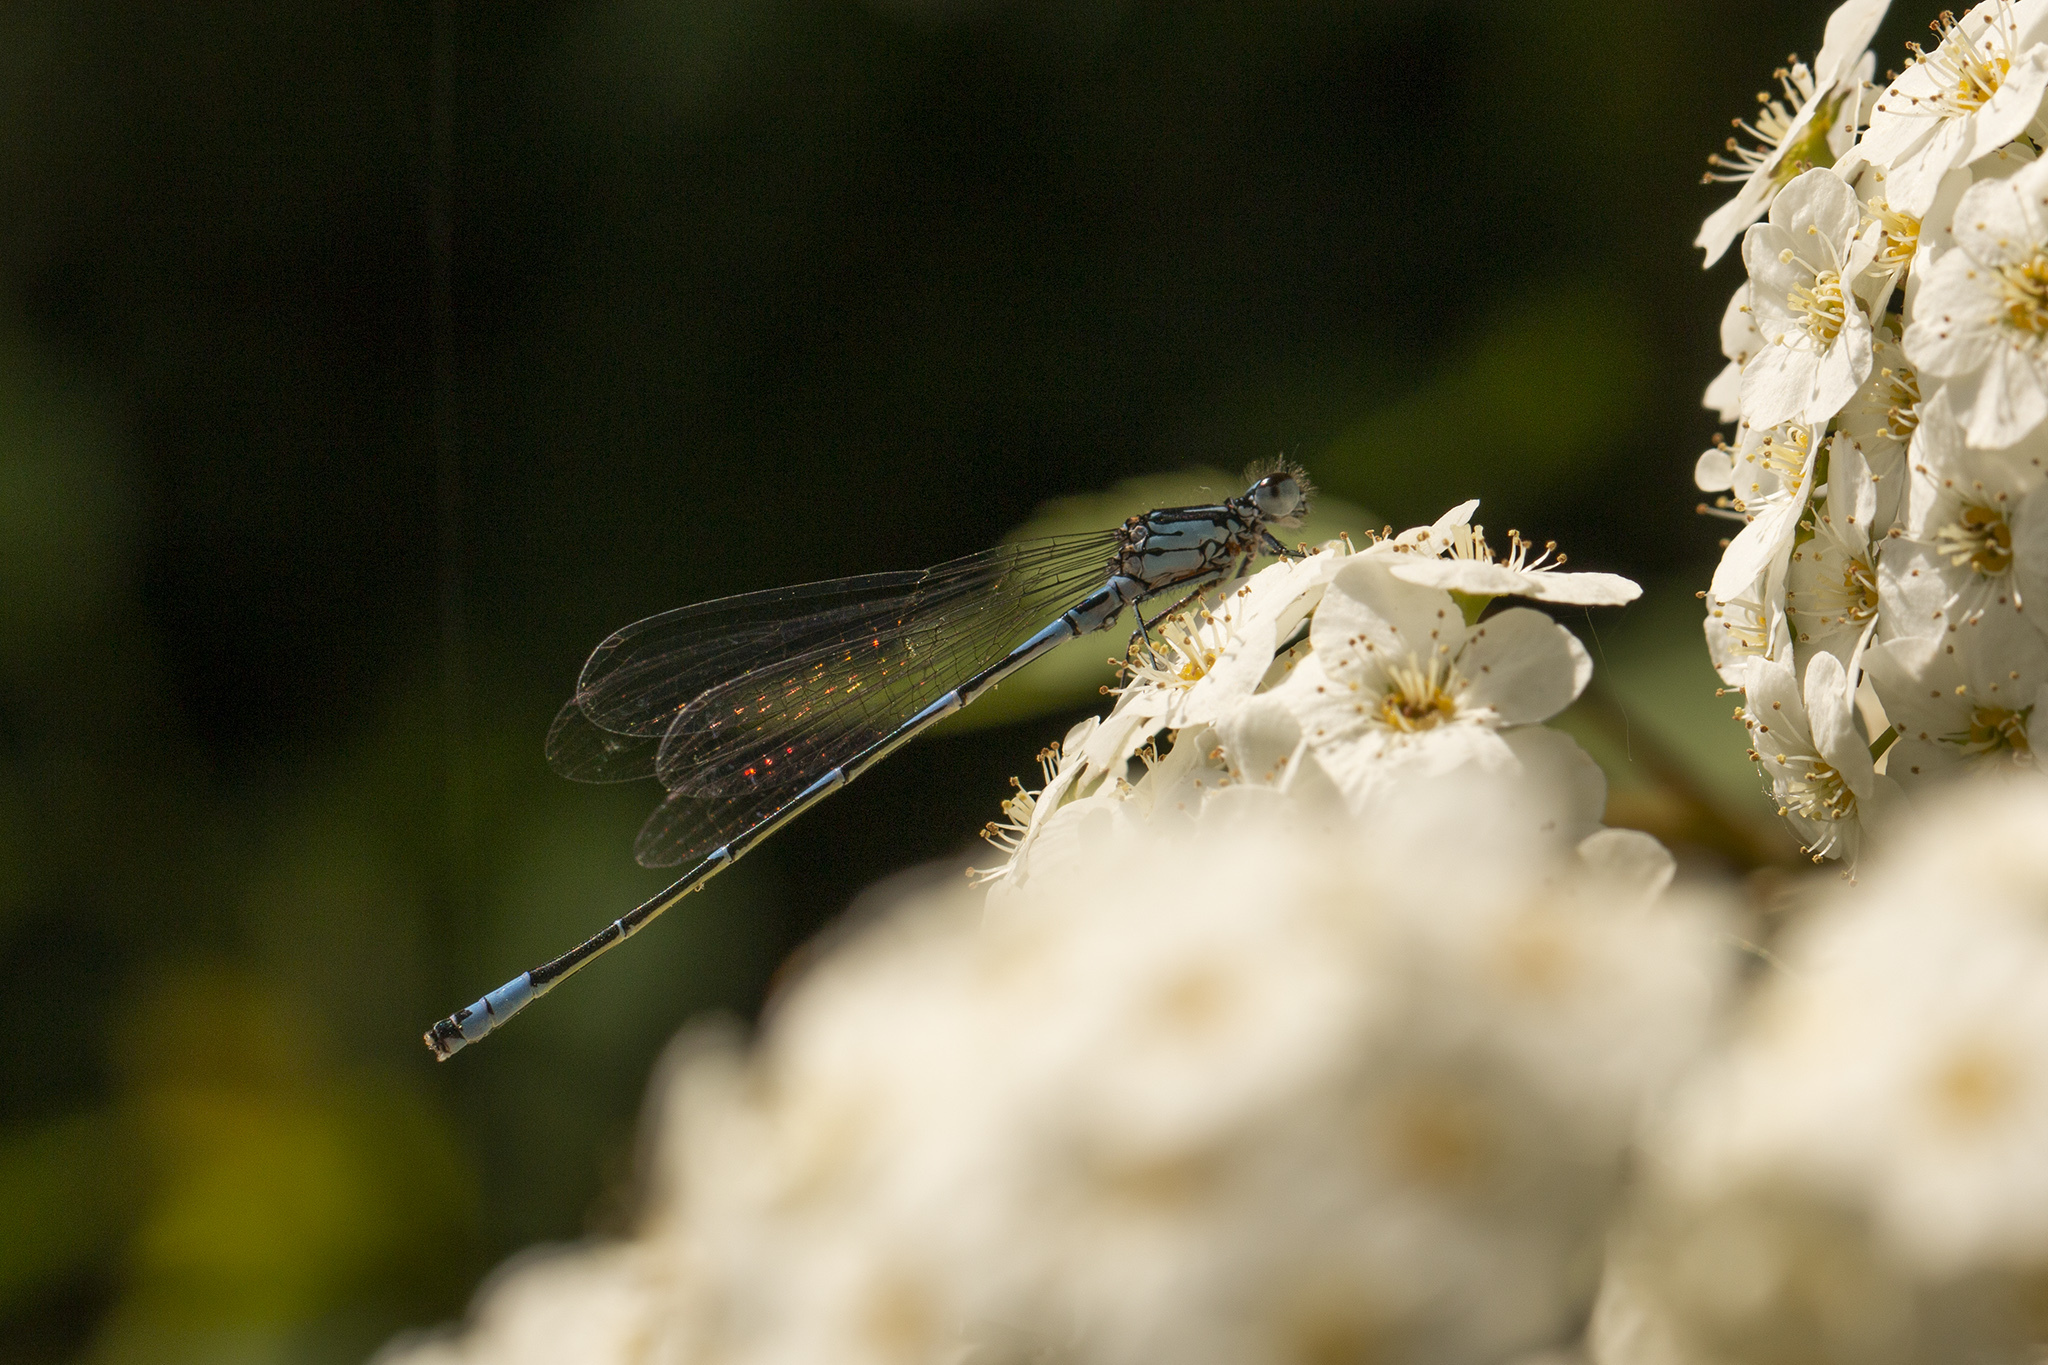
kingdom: Animalia
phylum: Arthropoda
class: Insecta
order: Odonata
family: Coenagrionidae
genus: Coenagrion
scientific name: Coenagrion pulchellum
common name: Variable bluet
